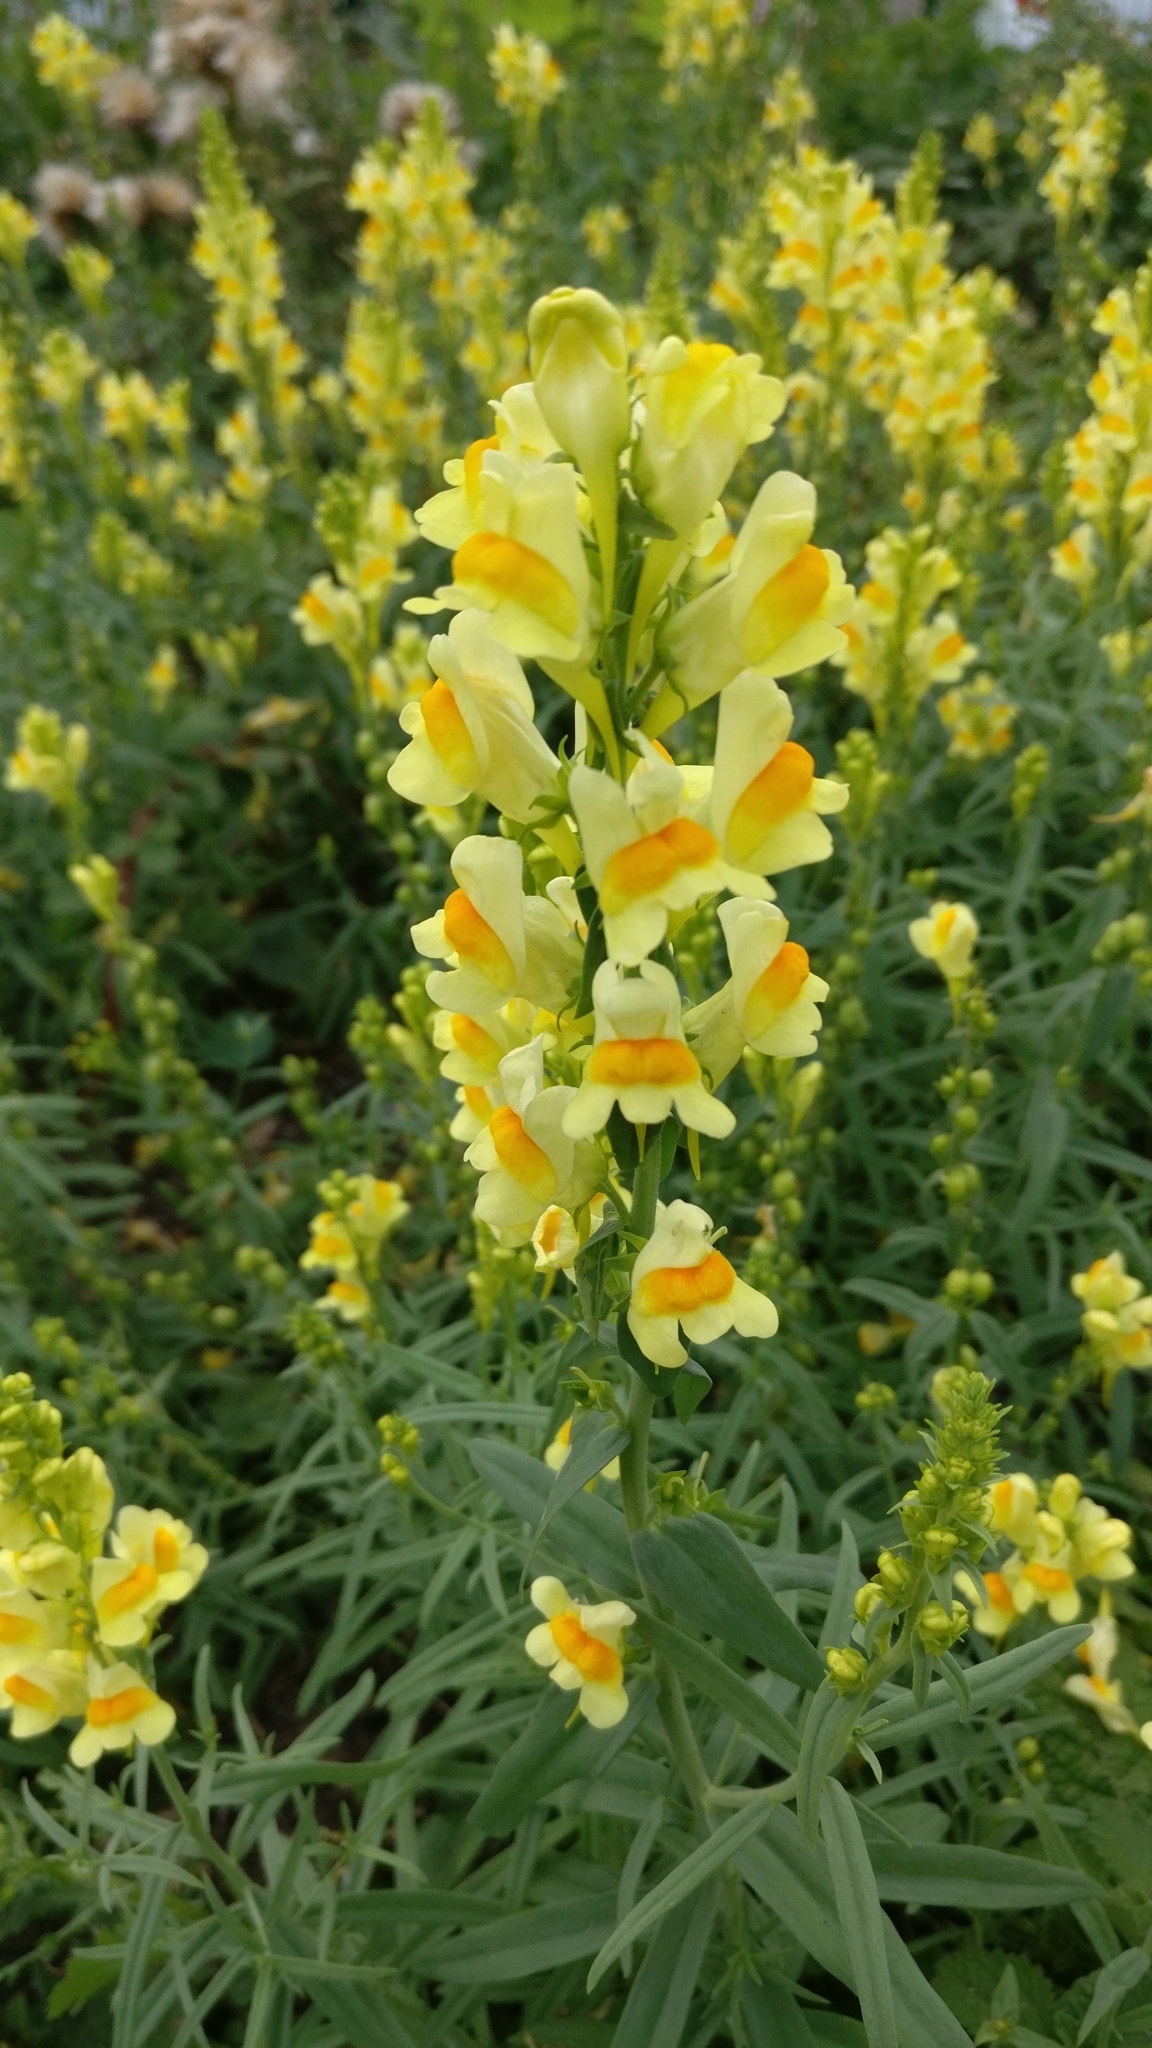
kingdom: Plantae
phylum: Tracheophyta
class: Magnoliopsida
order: Lamiales
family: Plantaginaceae
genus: Linaria
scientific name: Linaria vulgaris
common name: Butter and eggs
